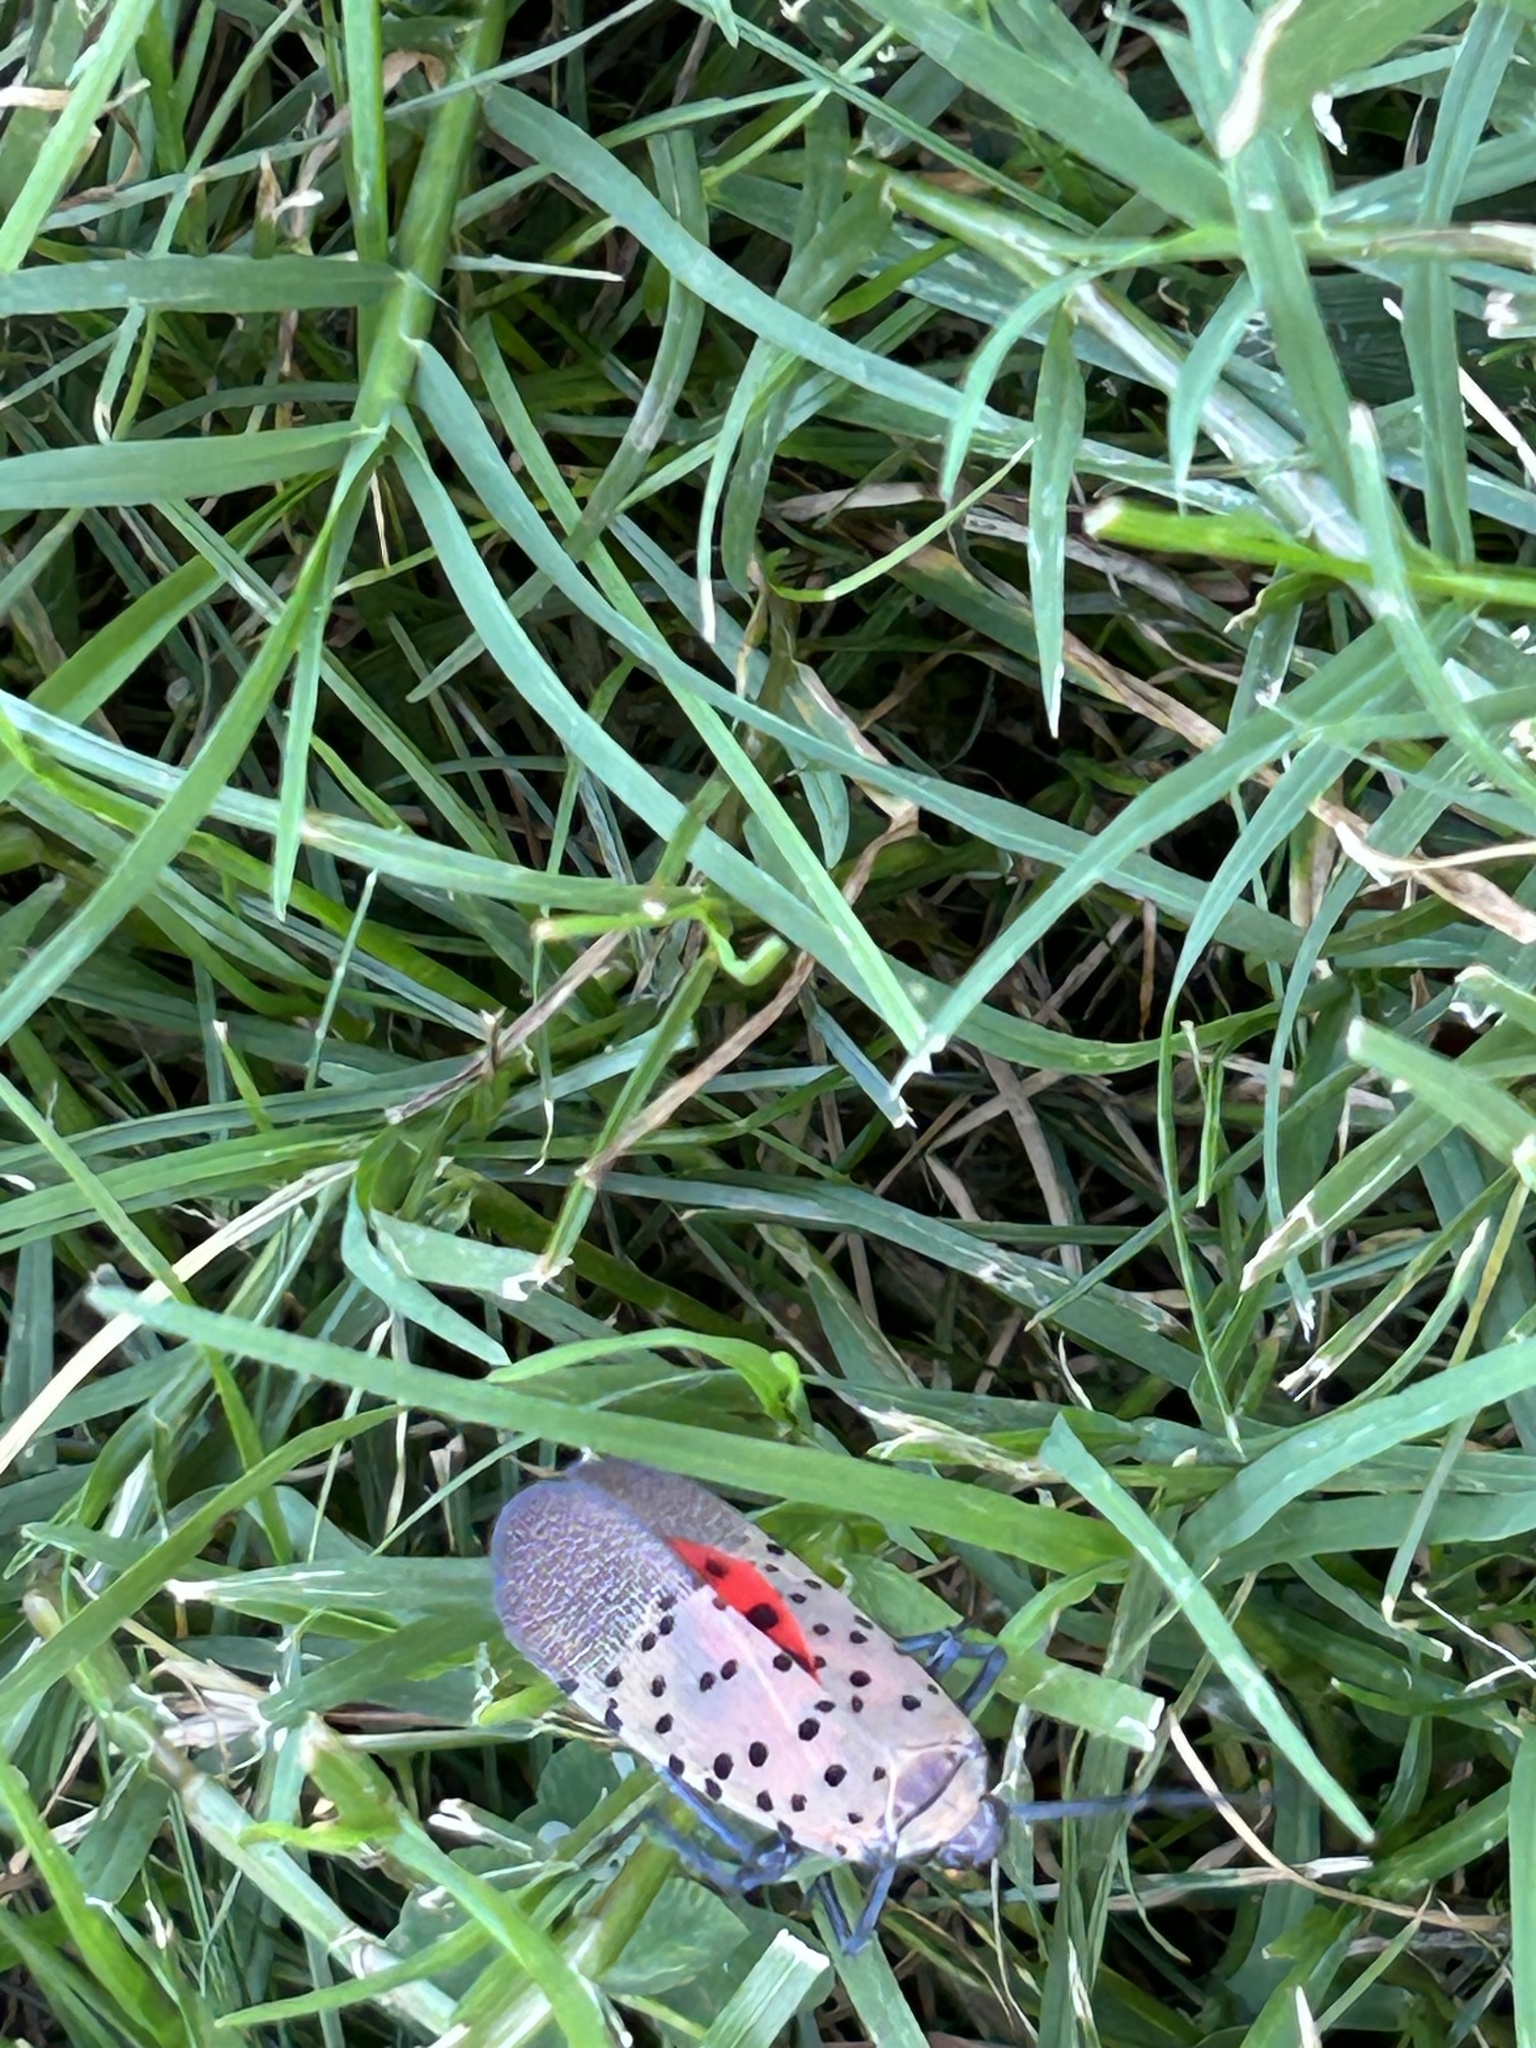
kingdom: Animalia
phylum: Arthropoda
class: Insecta
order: Hemiptera
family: Fulgoridae
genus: Lycorma
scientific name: Lycorma delicatula
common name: Spotted lanternfly
